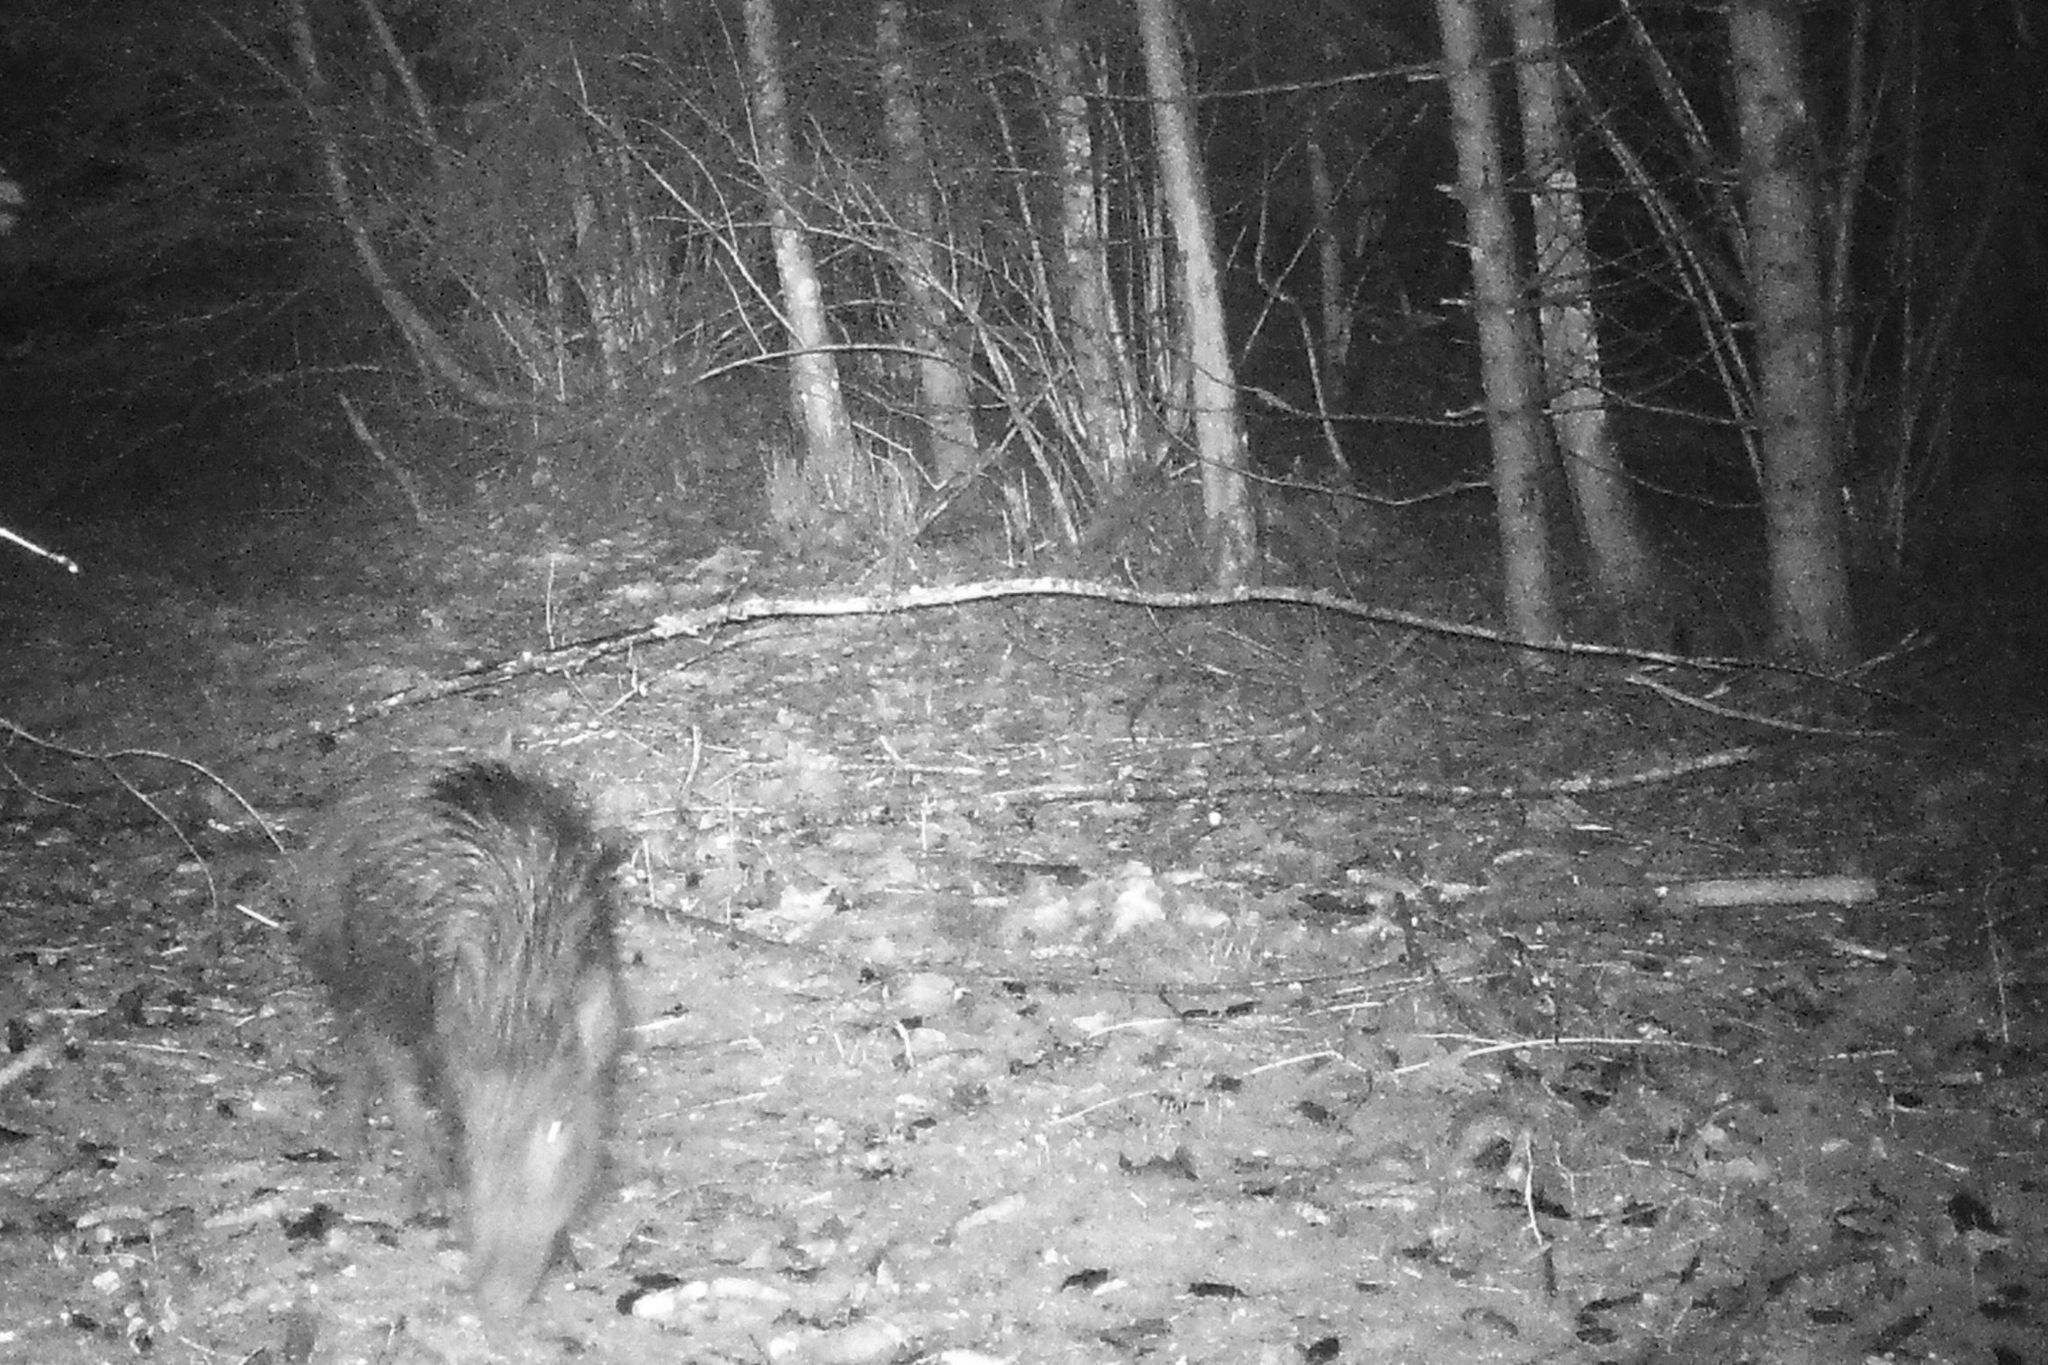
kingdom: Animalia
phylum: Chordata
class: Mammalia
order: Artiodactyla
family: Suidae
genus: Sus
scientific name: Sus scrofa
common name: Wild boar
